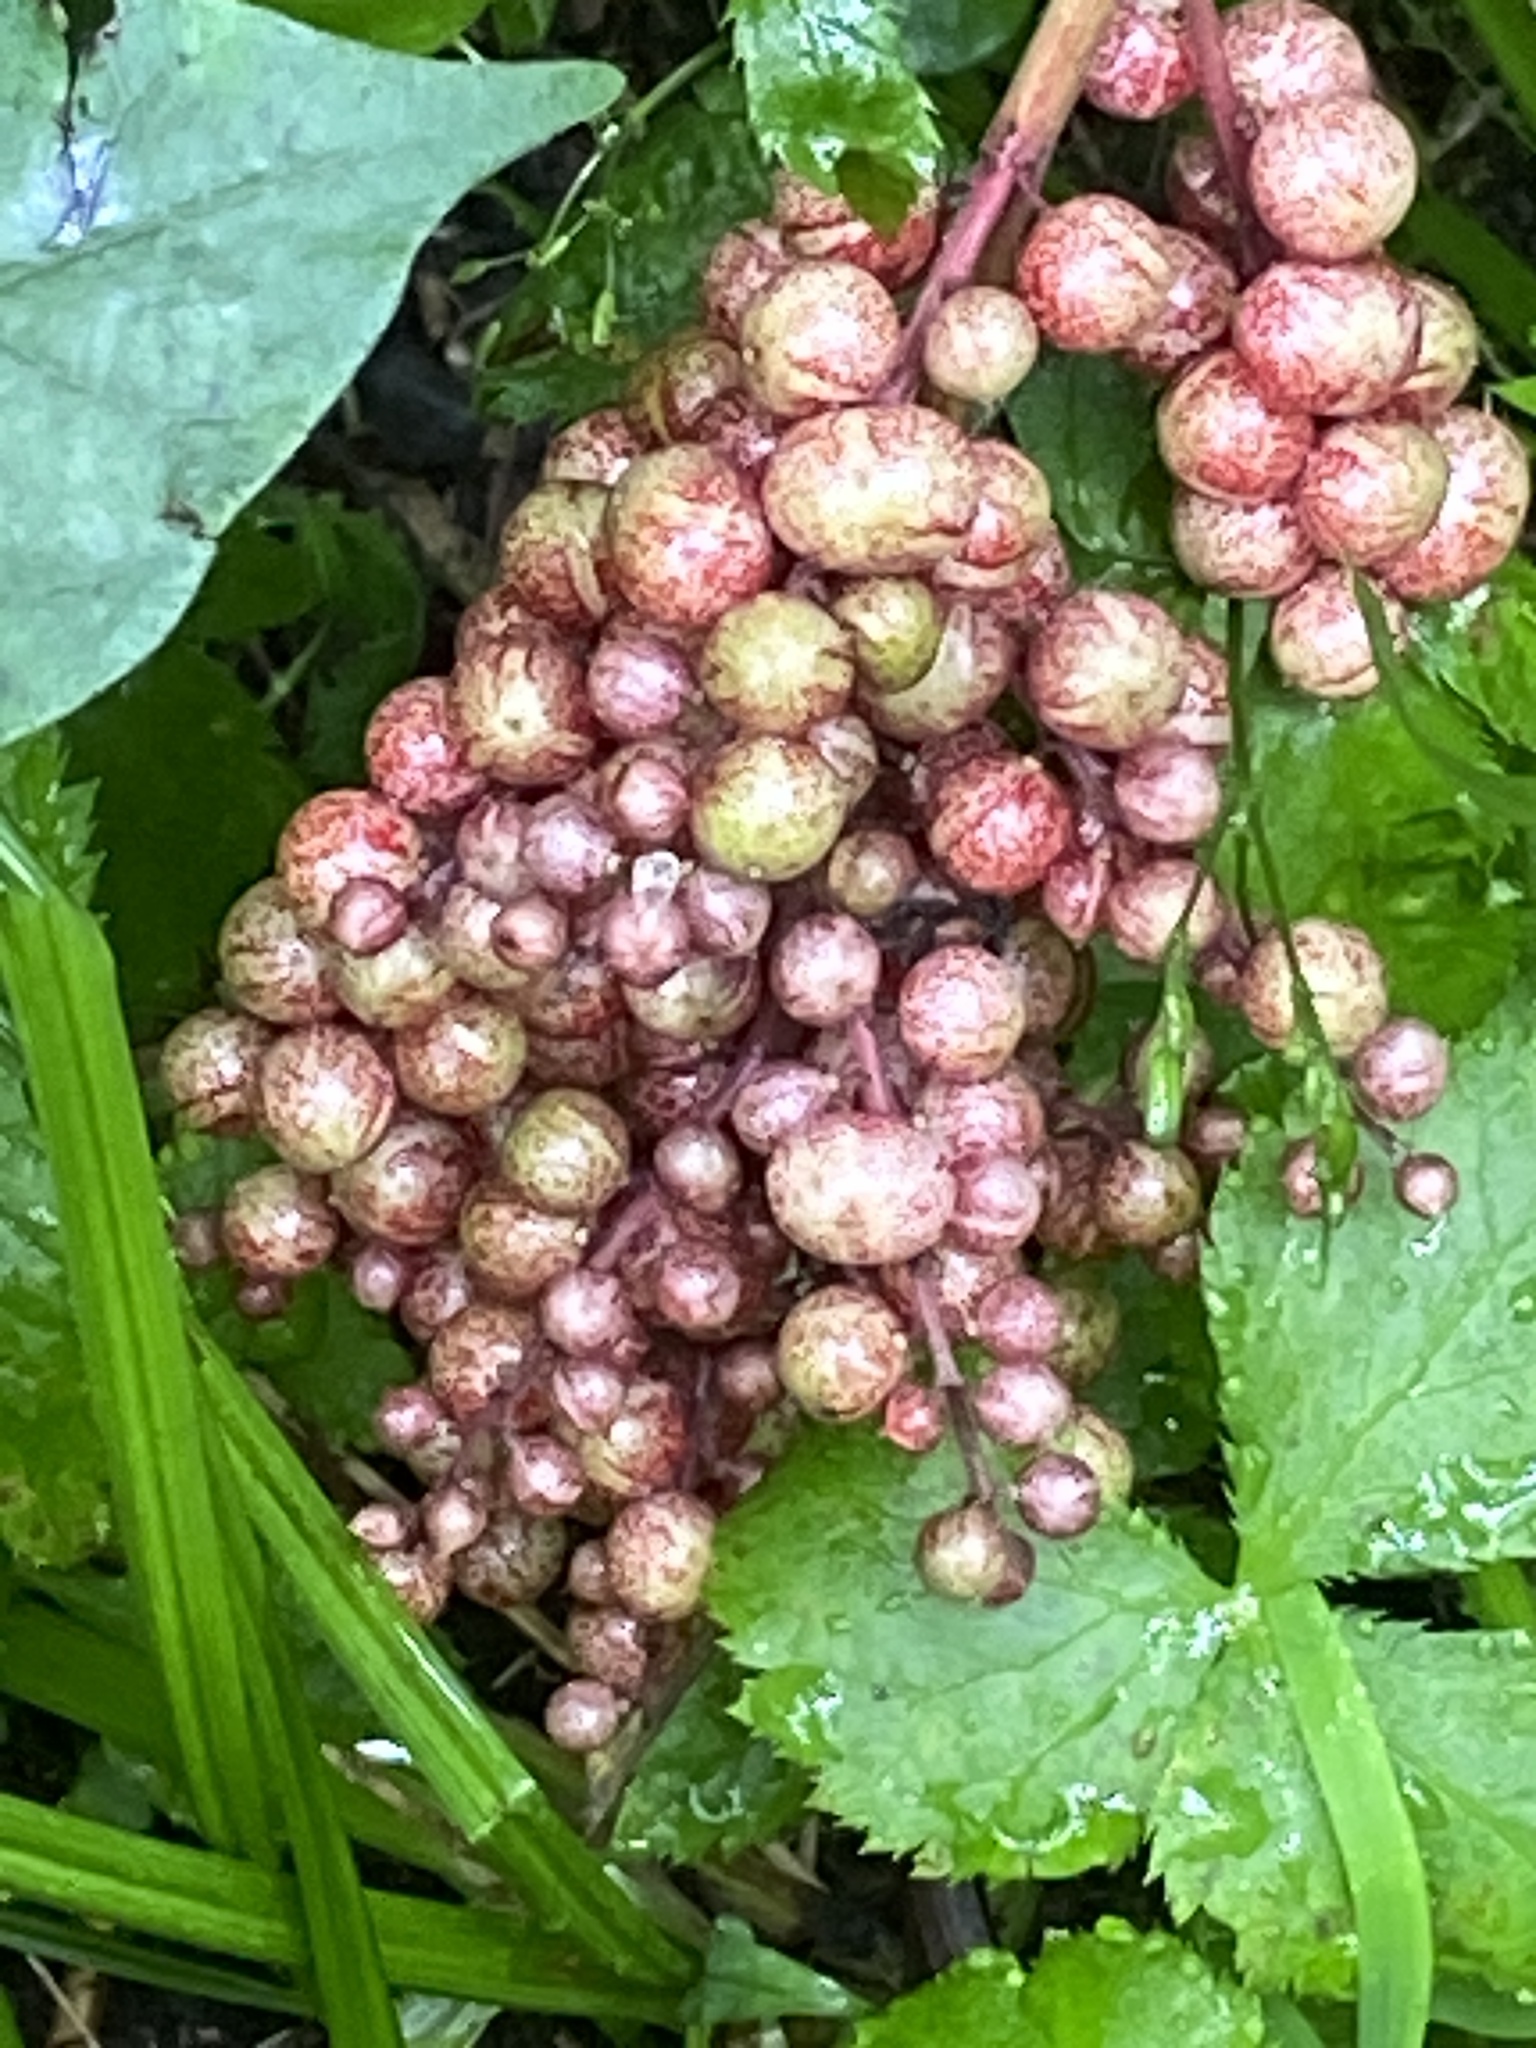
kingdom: Plantae
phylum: Tracheophyta
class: Liliopsida
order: Asparagales
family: Asparagaceae
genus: Maianthemum
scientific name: Maianthemum racemosum
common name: False spikenard
